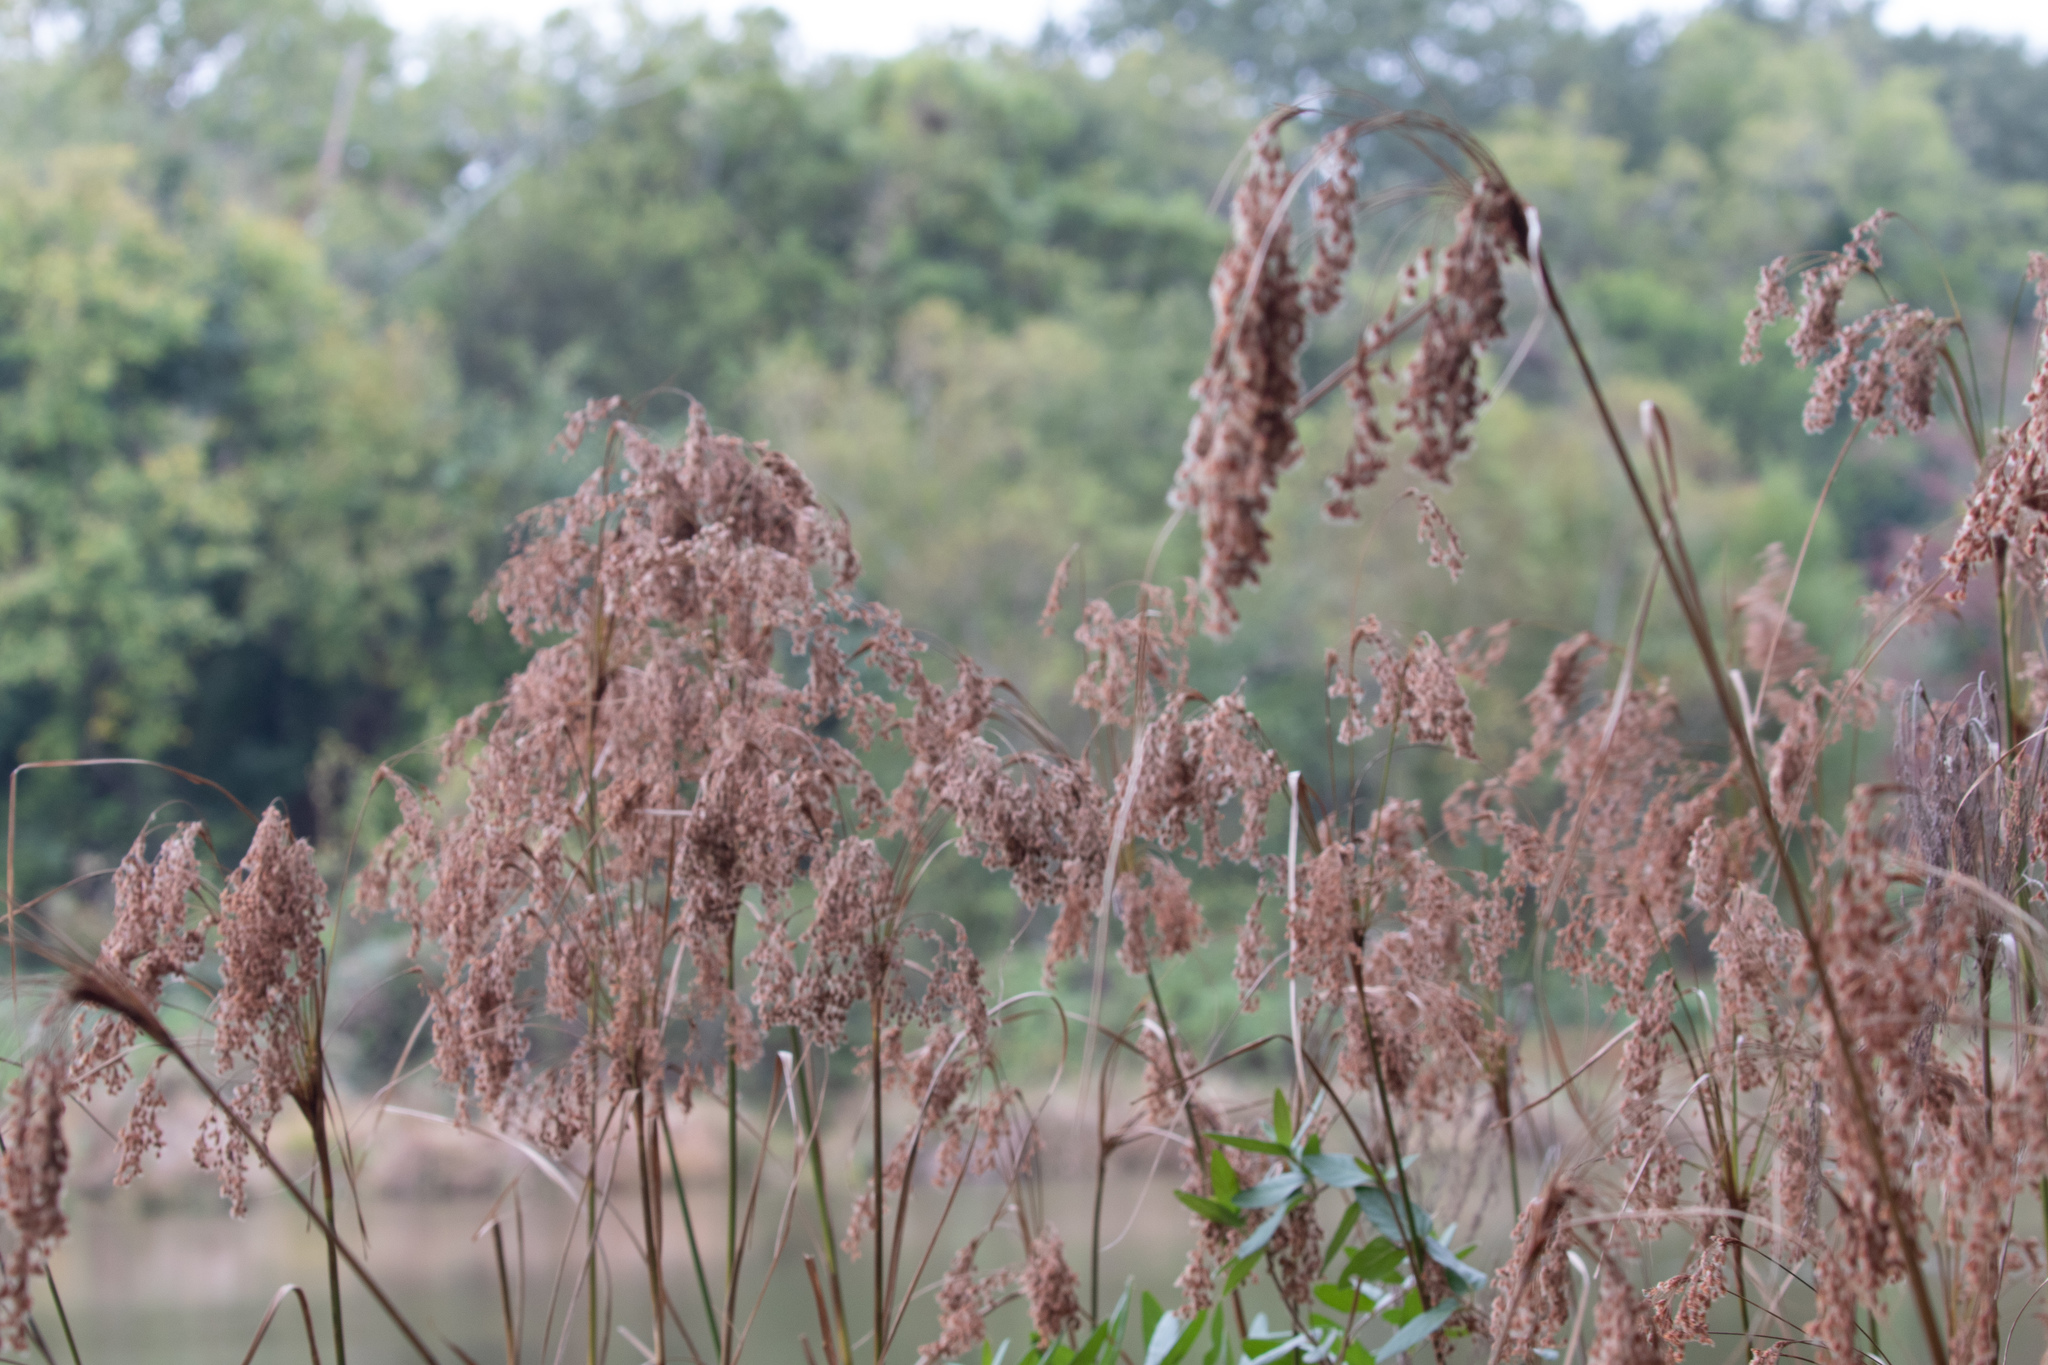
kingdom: Plantae
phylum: Tracheophyta
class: Liliopsida
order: Poales
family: Cyperaceae
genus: Scirpus
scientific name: Scirpus cyperinus
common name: Black-sheathed bulrush
